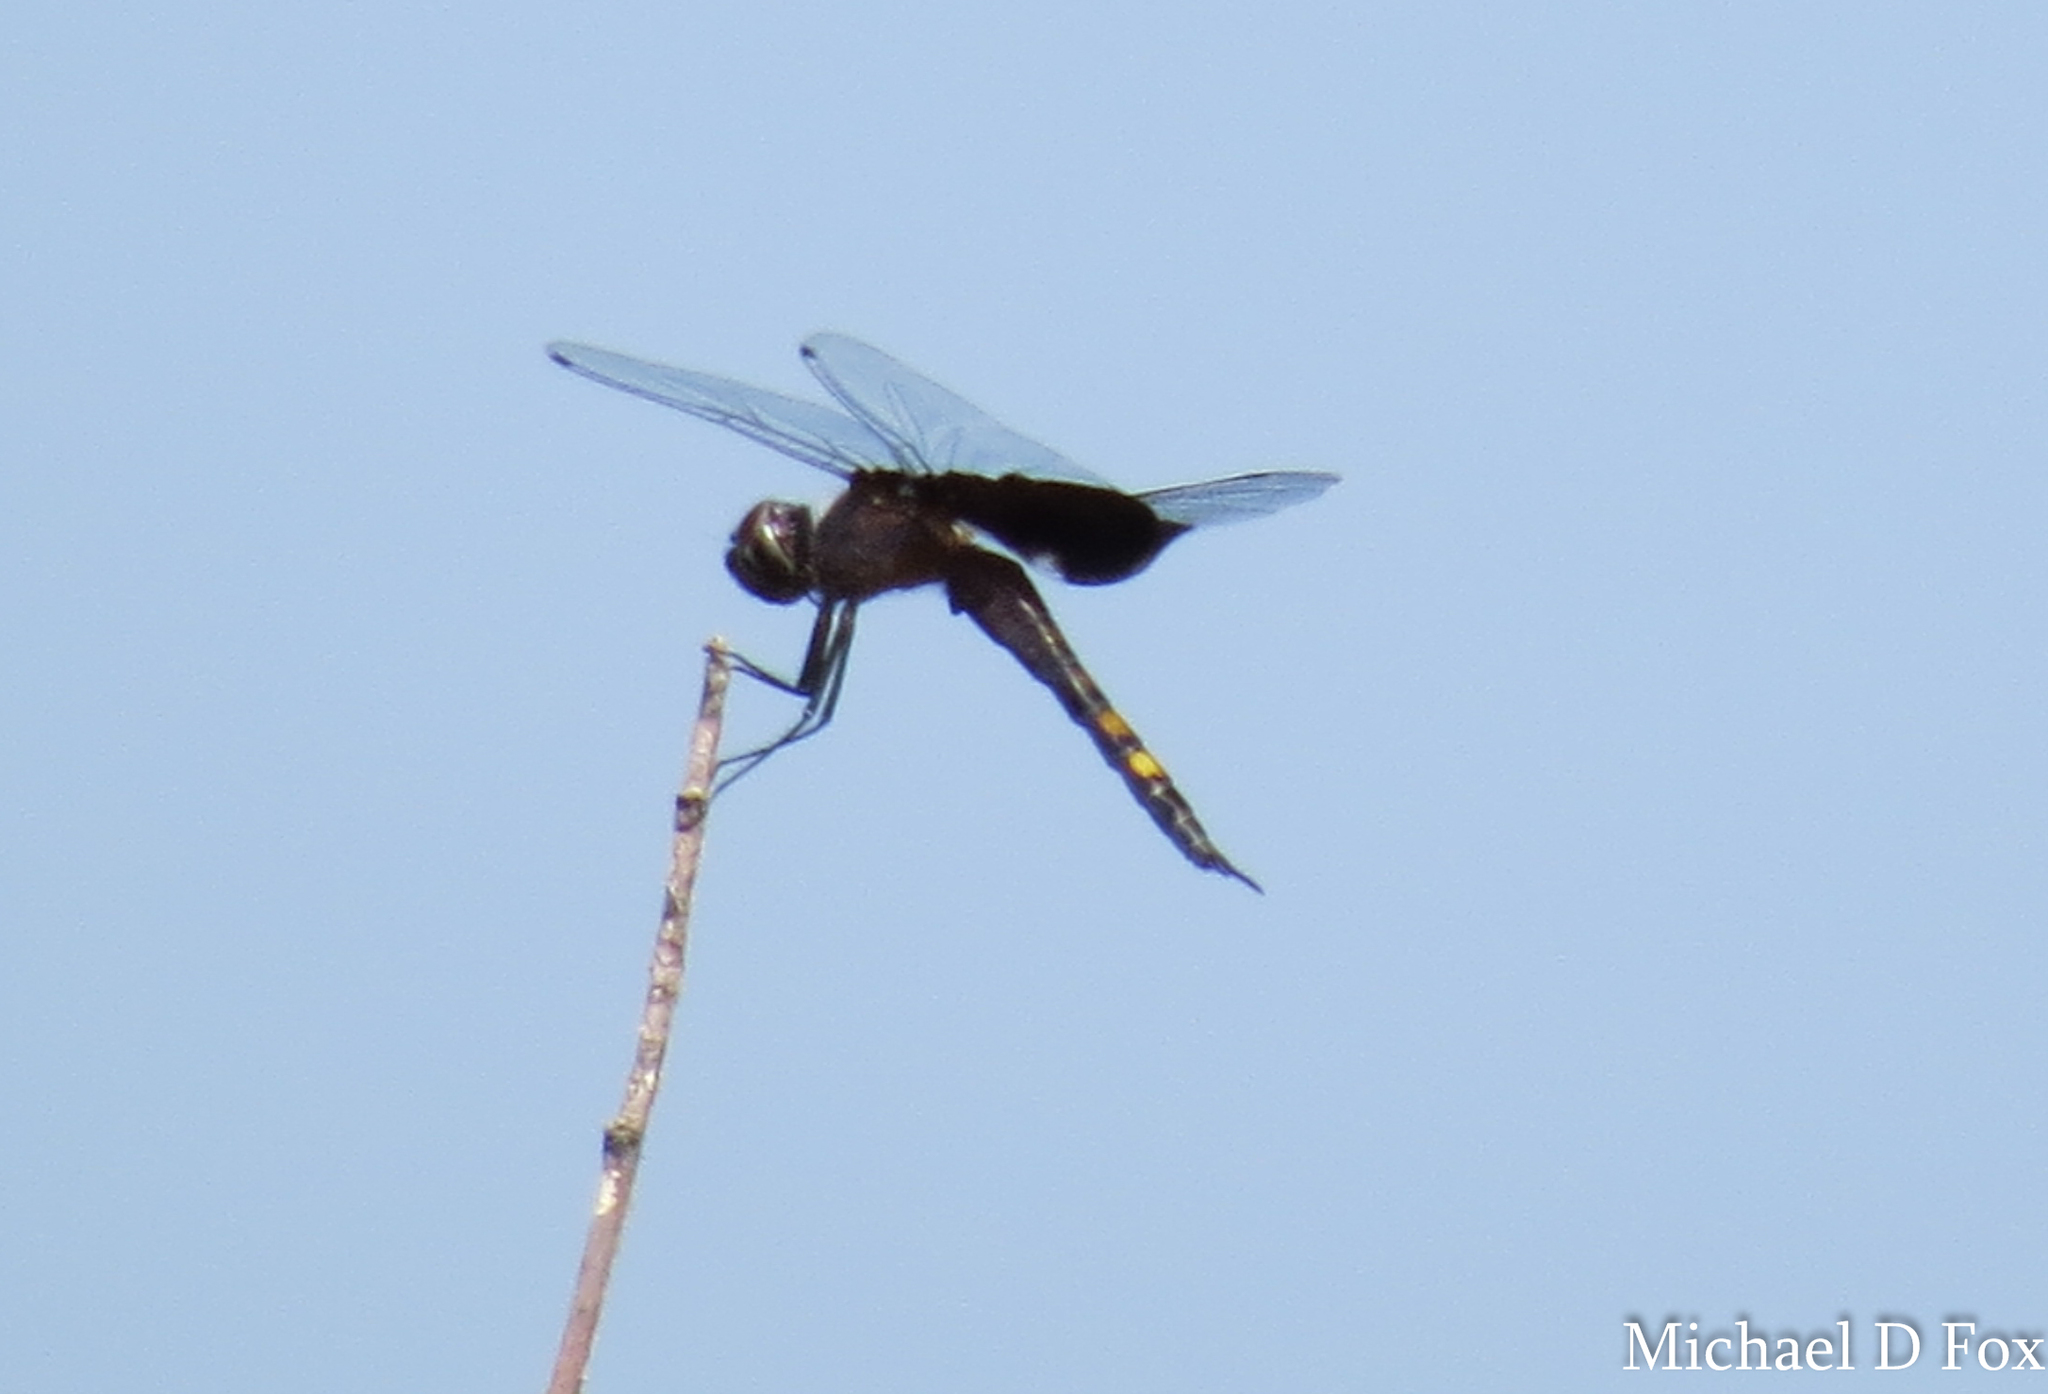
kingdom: Animalia
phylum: Arthropoda
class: Insecta
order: Odonata
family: Libellulidae
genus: Tramea
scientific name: Tramea lacerata
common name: Black saddlebags
